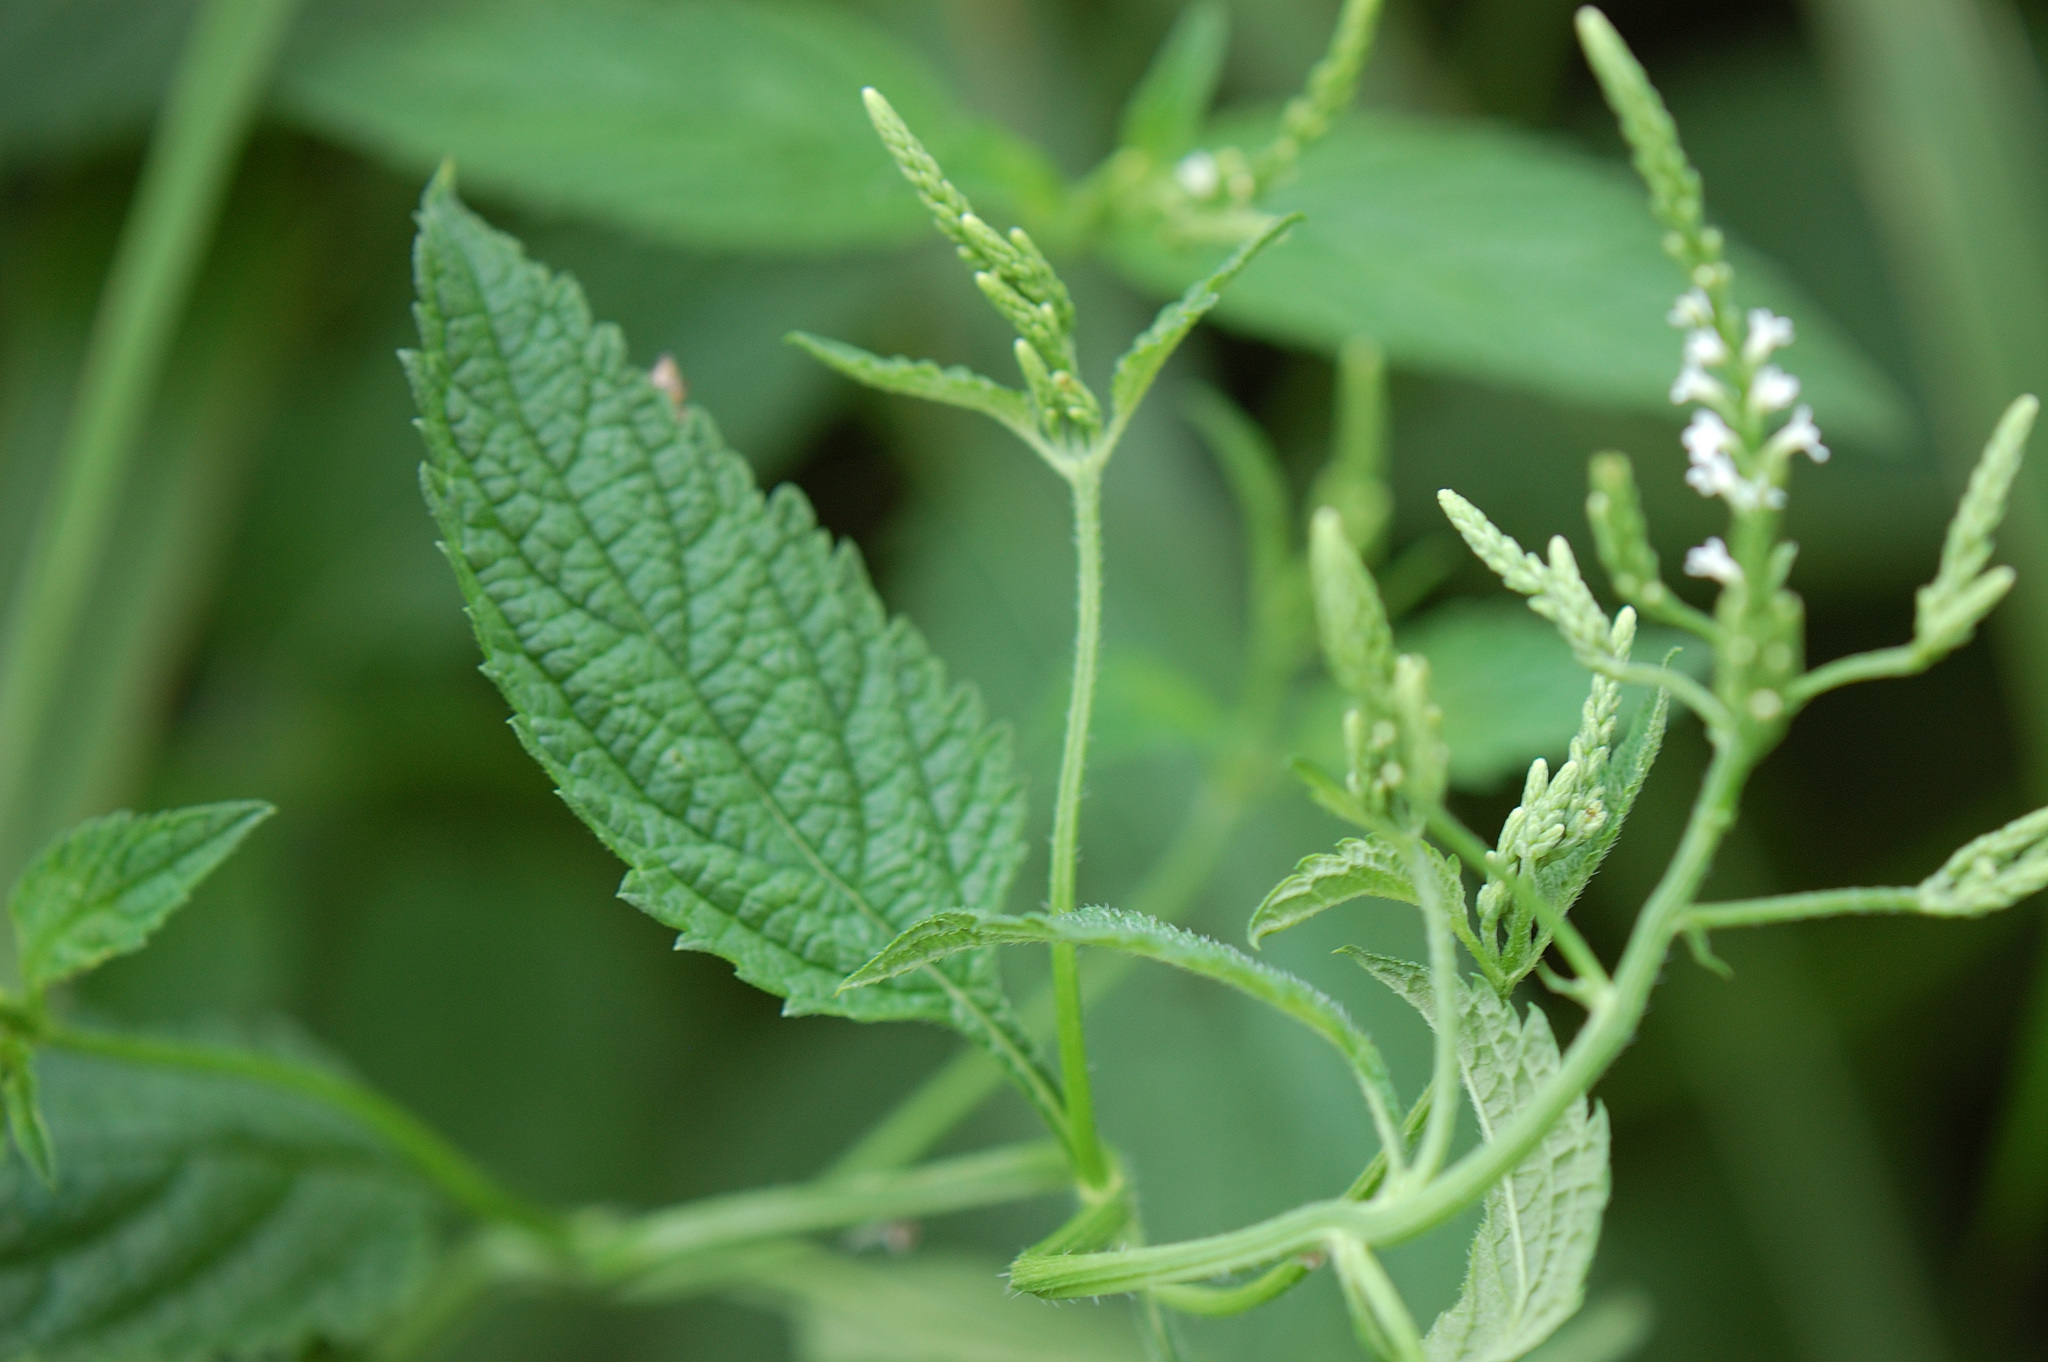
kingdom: Plantae
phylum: Tracheophyta
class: Magnoliopsida
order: Lamiales
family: Verbenaceae
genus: Verbena
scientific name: Verbena urticifolia
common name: Nettle-leaved vervain
